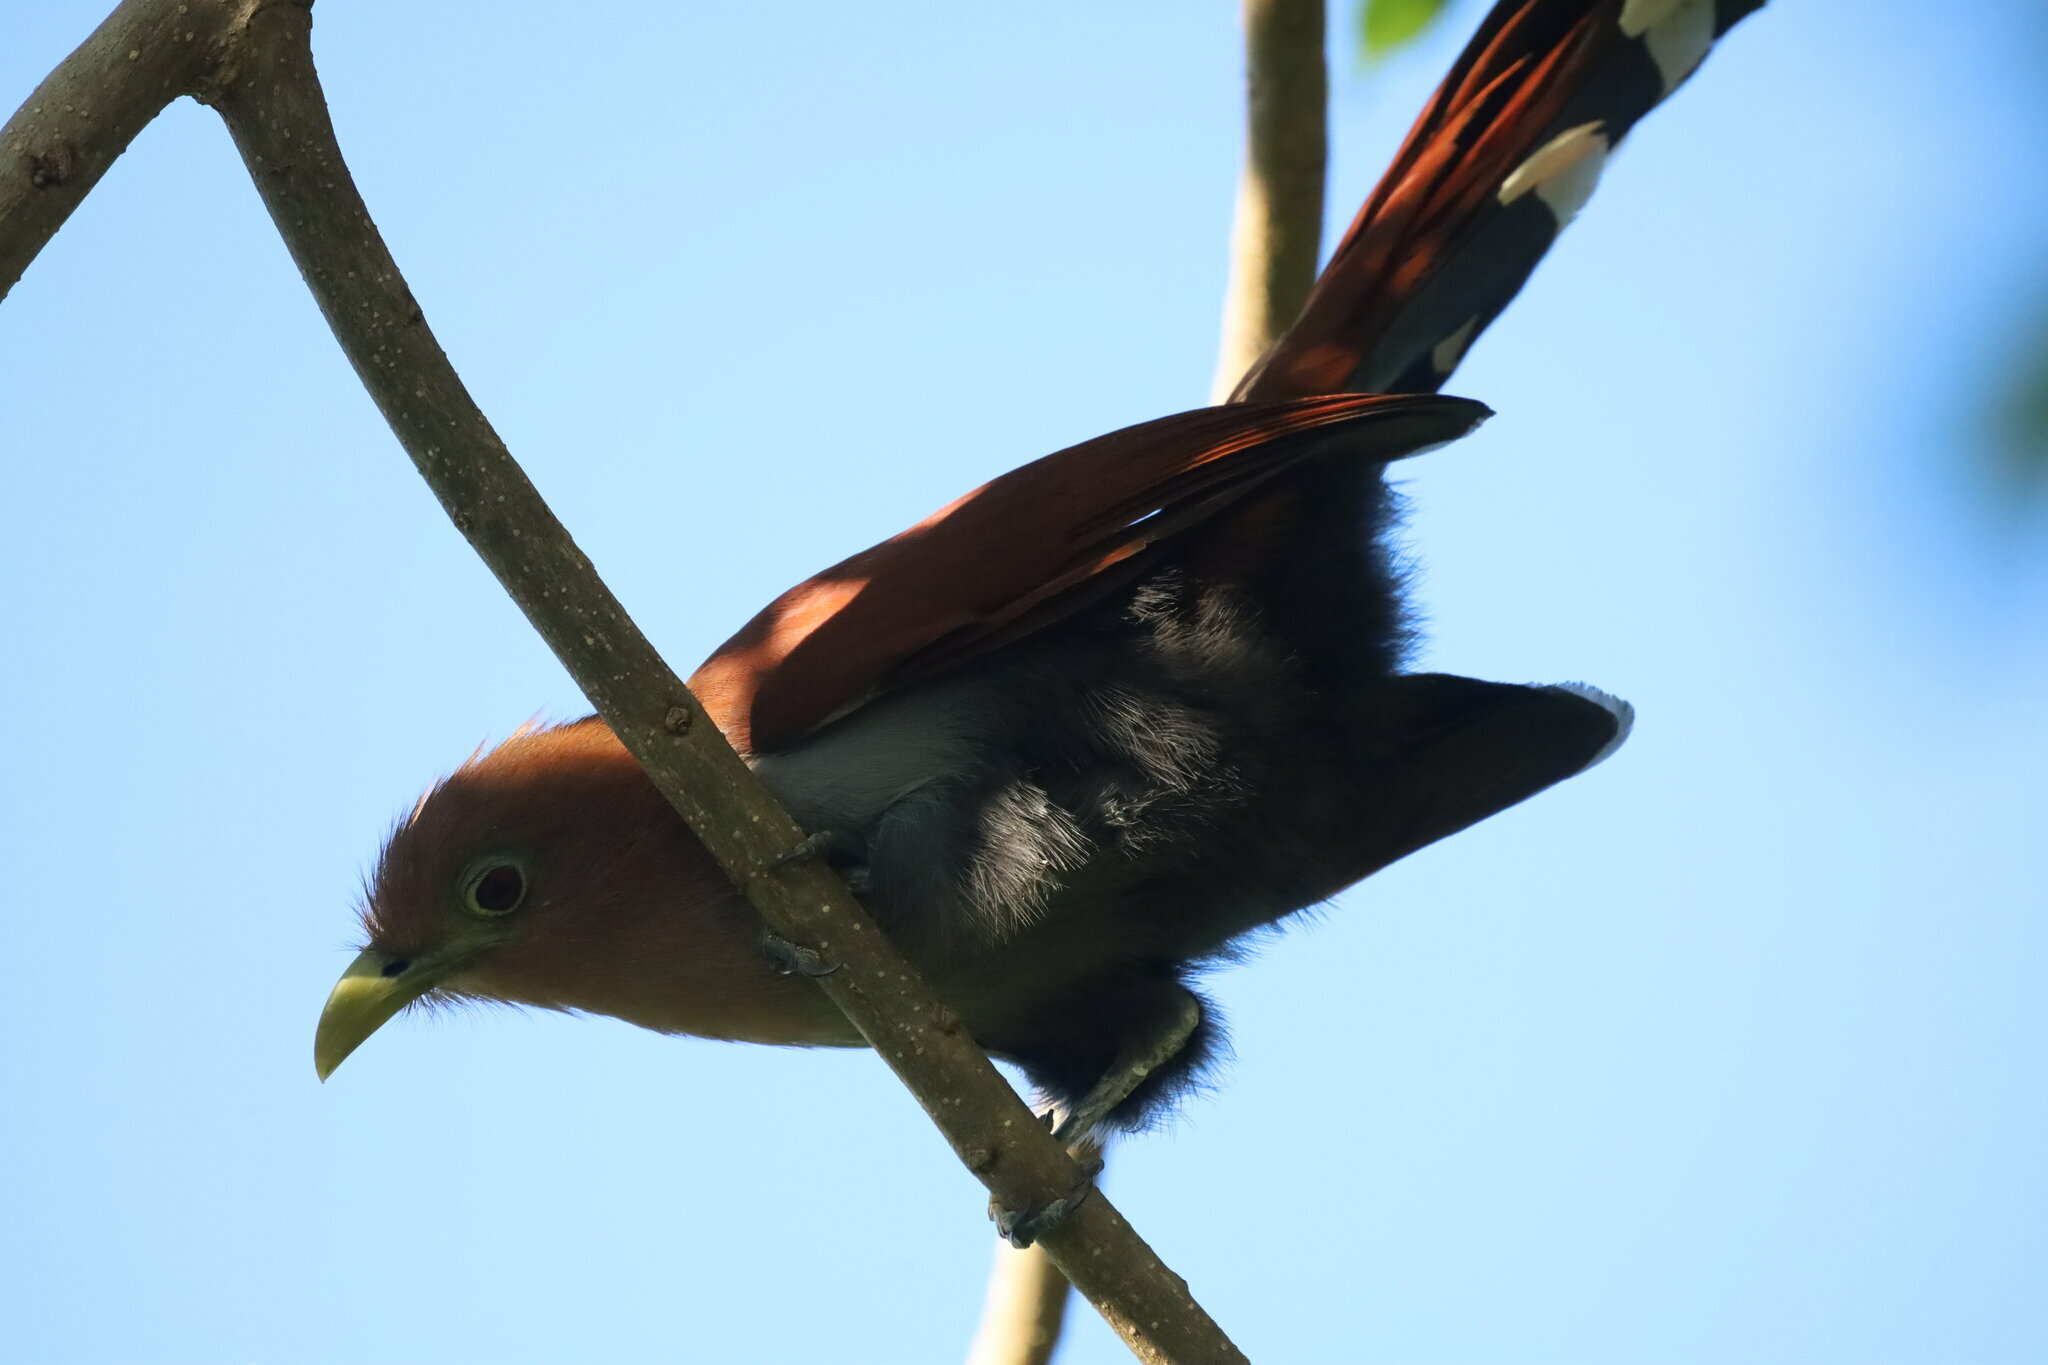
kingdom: Animalia
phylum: Chordata
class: Aves
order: Cuculiformes
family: Cuculidae
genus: Piaya
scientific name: Piaya cayana
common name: Squirrel cuckoo
